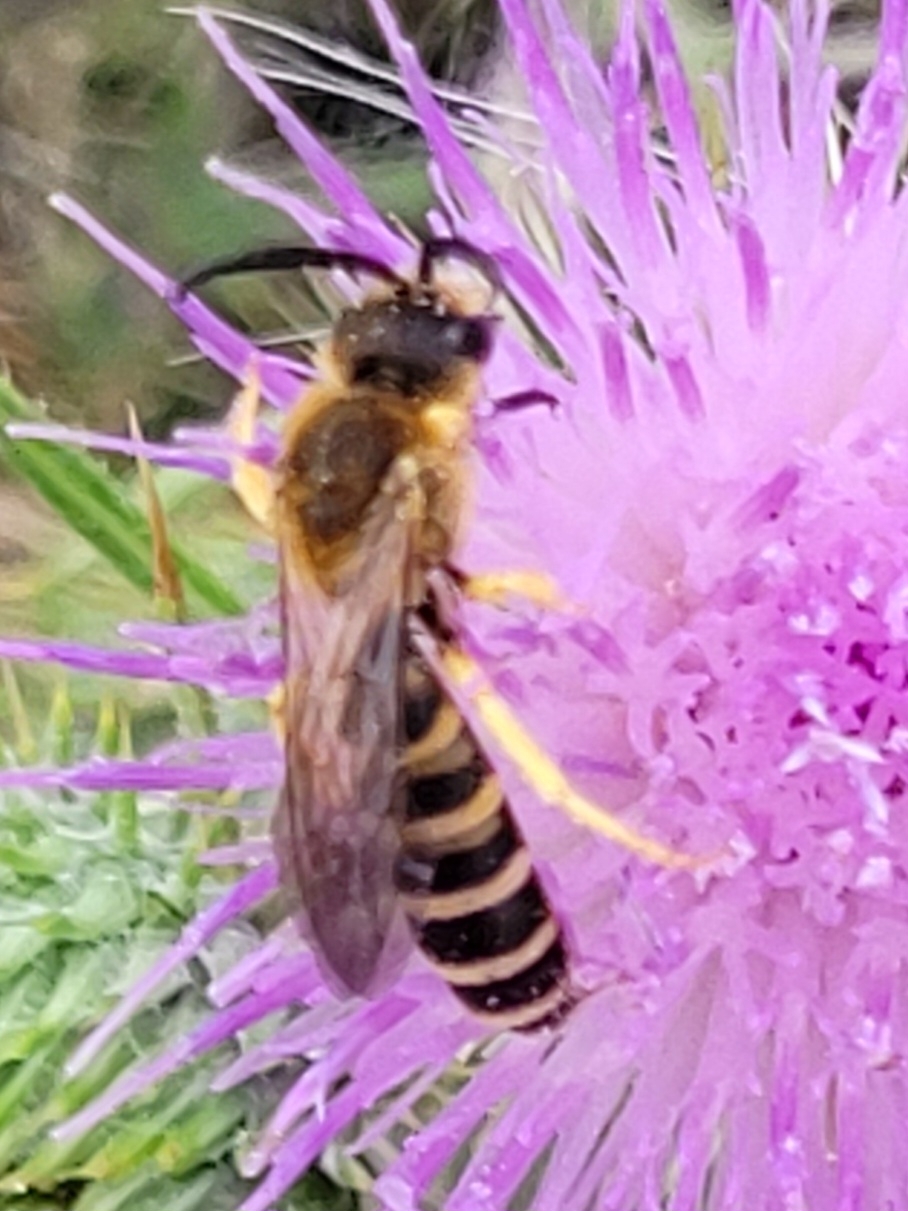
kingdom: Animalia
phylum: Arthropoda
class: Insecta
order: Hymenoptera
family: Halictidae
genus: Halictus
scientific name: Halictus scabiosae
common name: Great banded furrow bee
